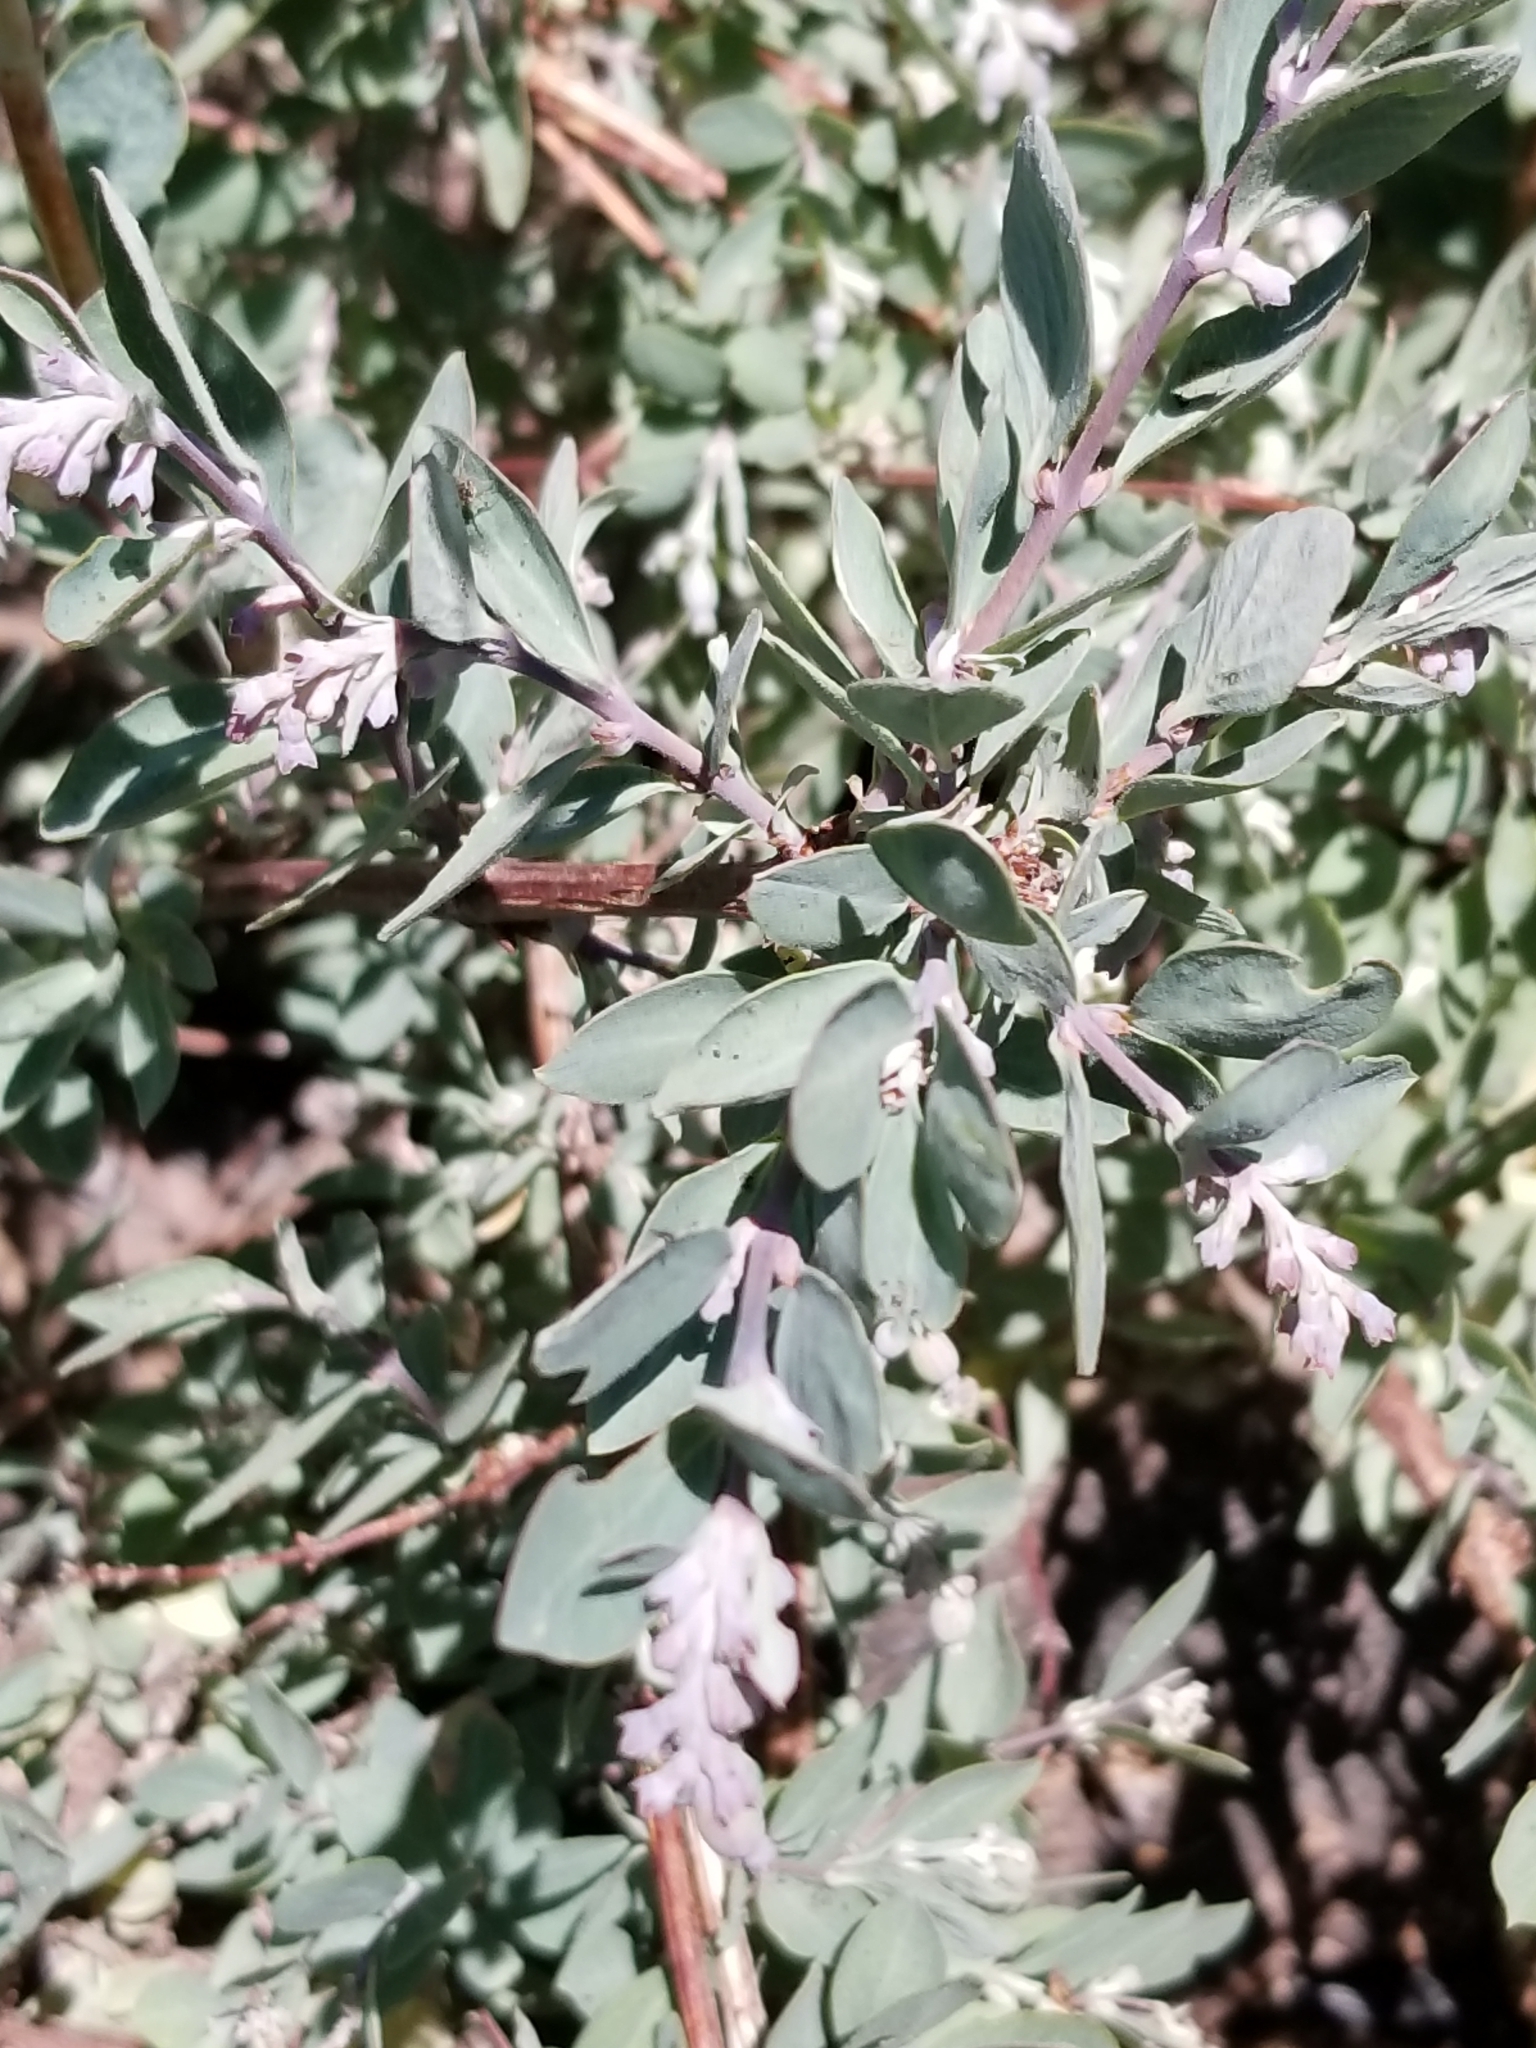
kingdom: Plantae
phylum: Tracheophyta
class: Magnoliopsida
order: Dipsacales
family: Caprifoliaceae
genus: Symphoricarpos
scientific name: Symphoricarpos rotundifolius
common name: Round-leaved snowberry
